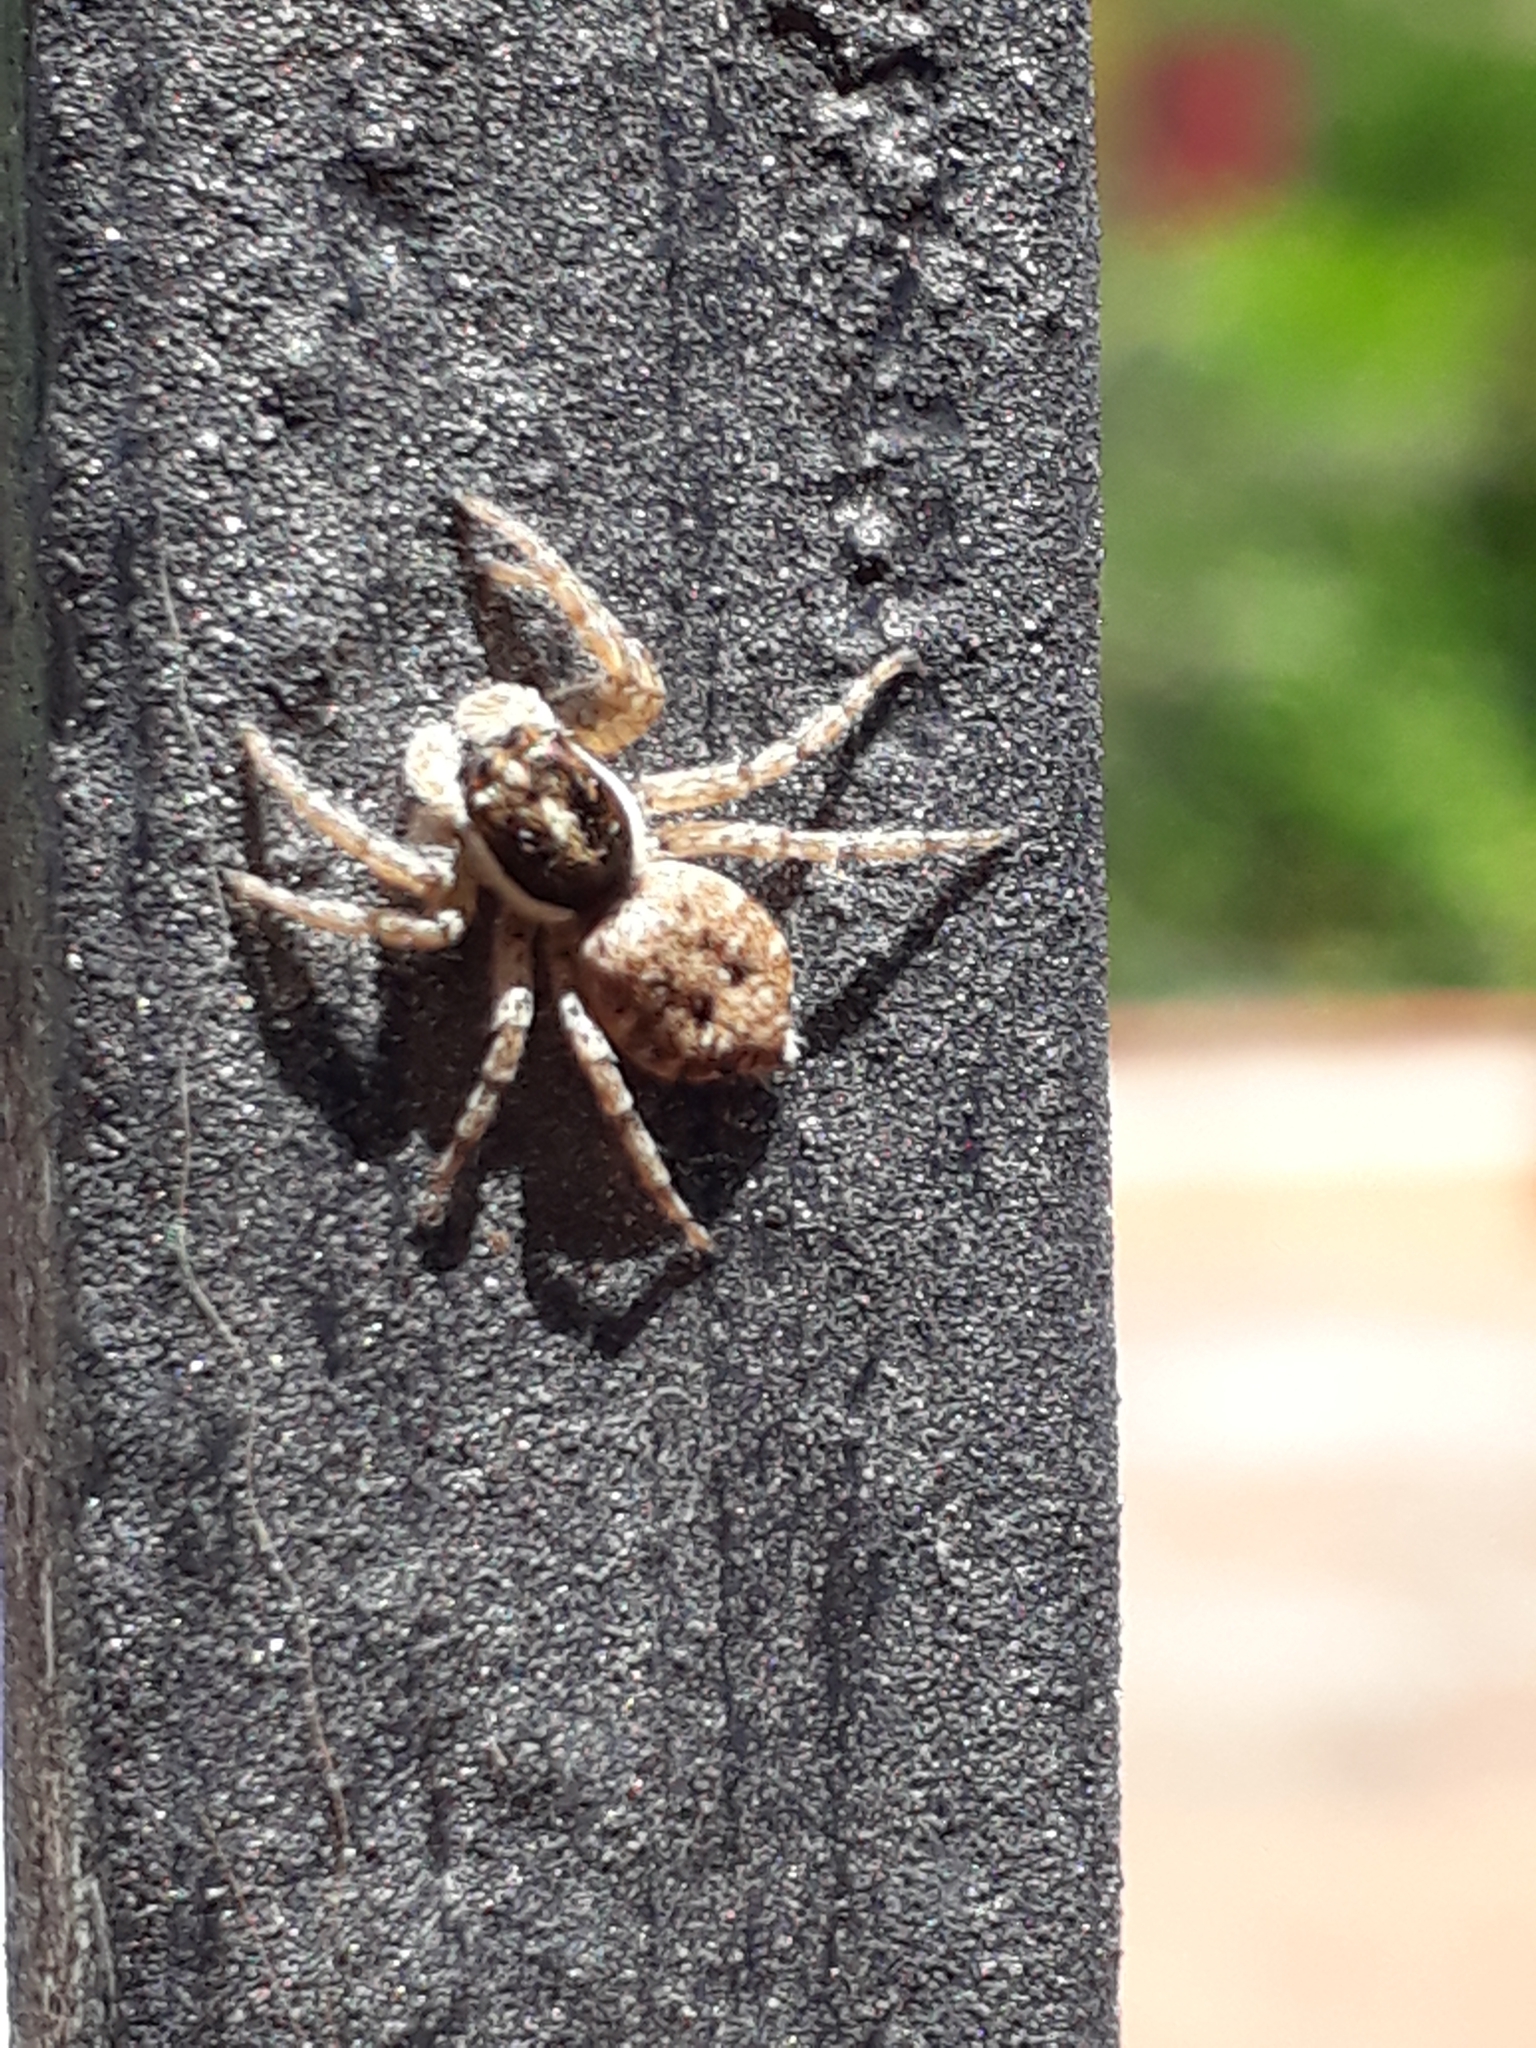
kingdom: Animalia
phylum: Arthropoda
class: Arachnida
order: Araneae
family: Salticidae
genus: Menemerus
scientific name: Menemerus semilimbatus
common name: Jumping spider
